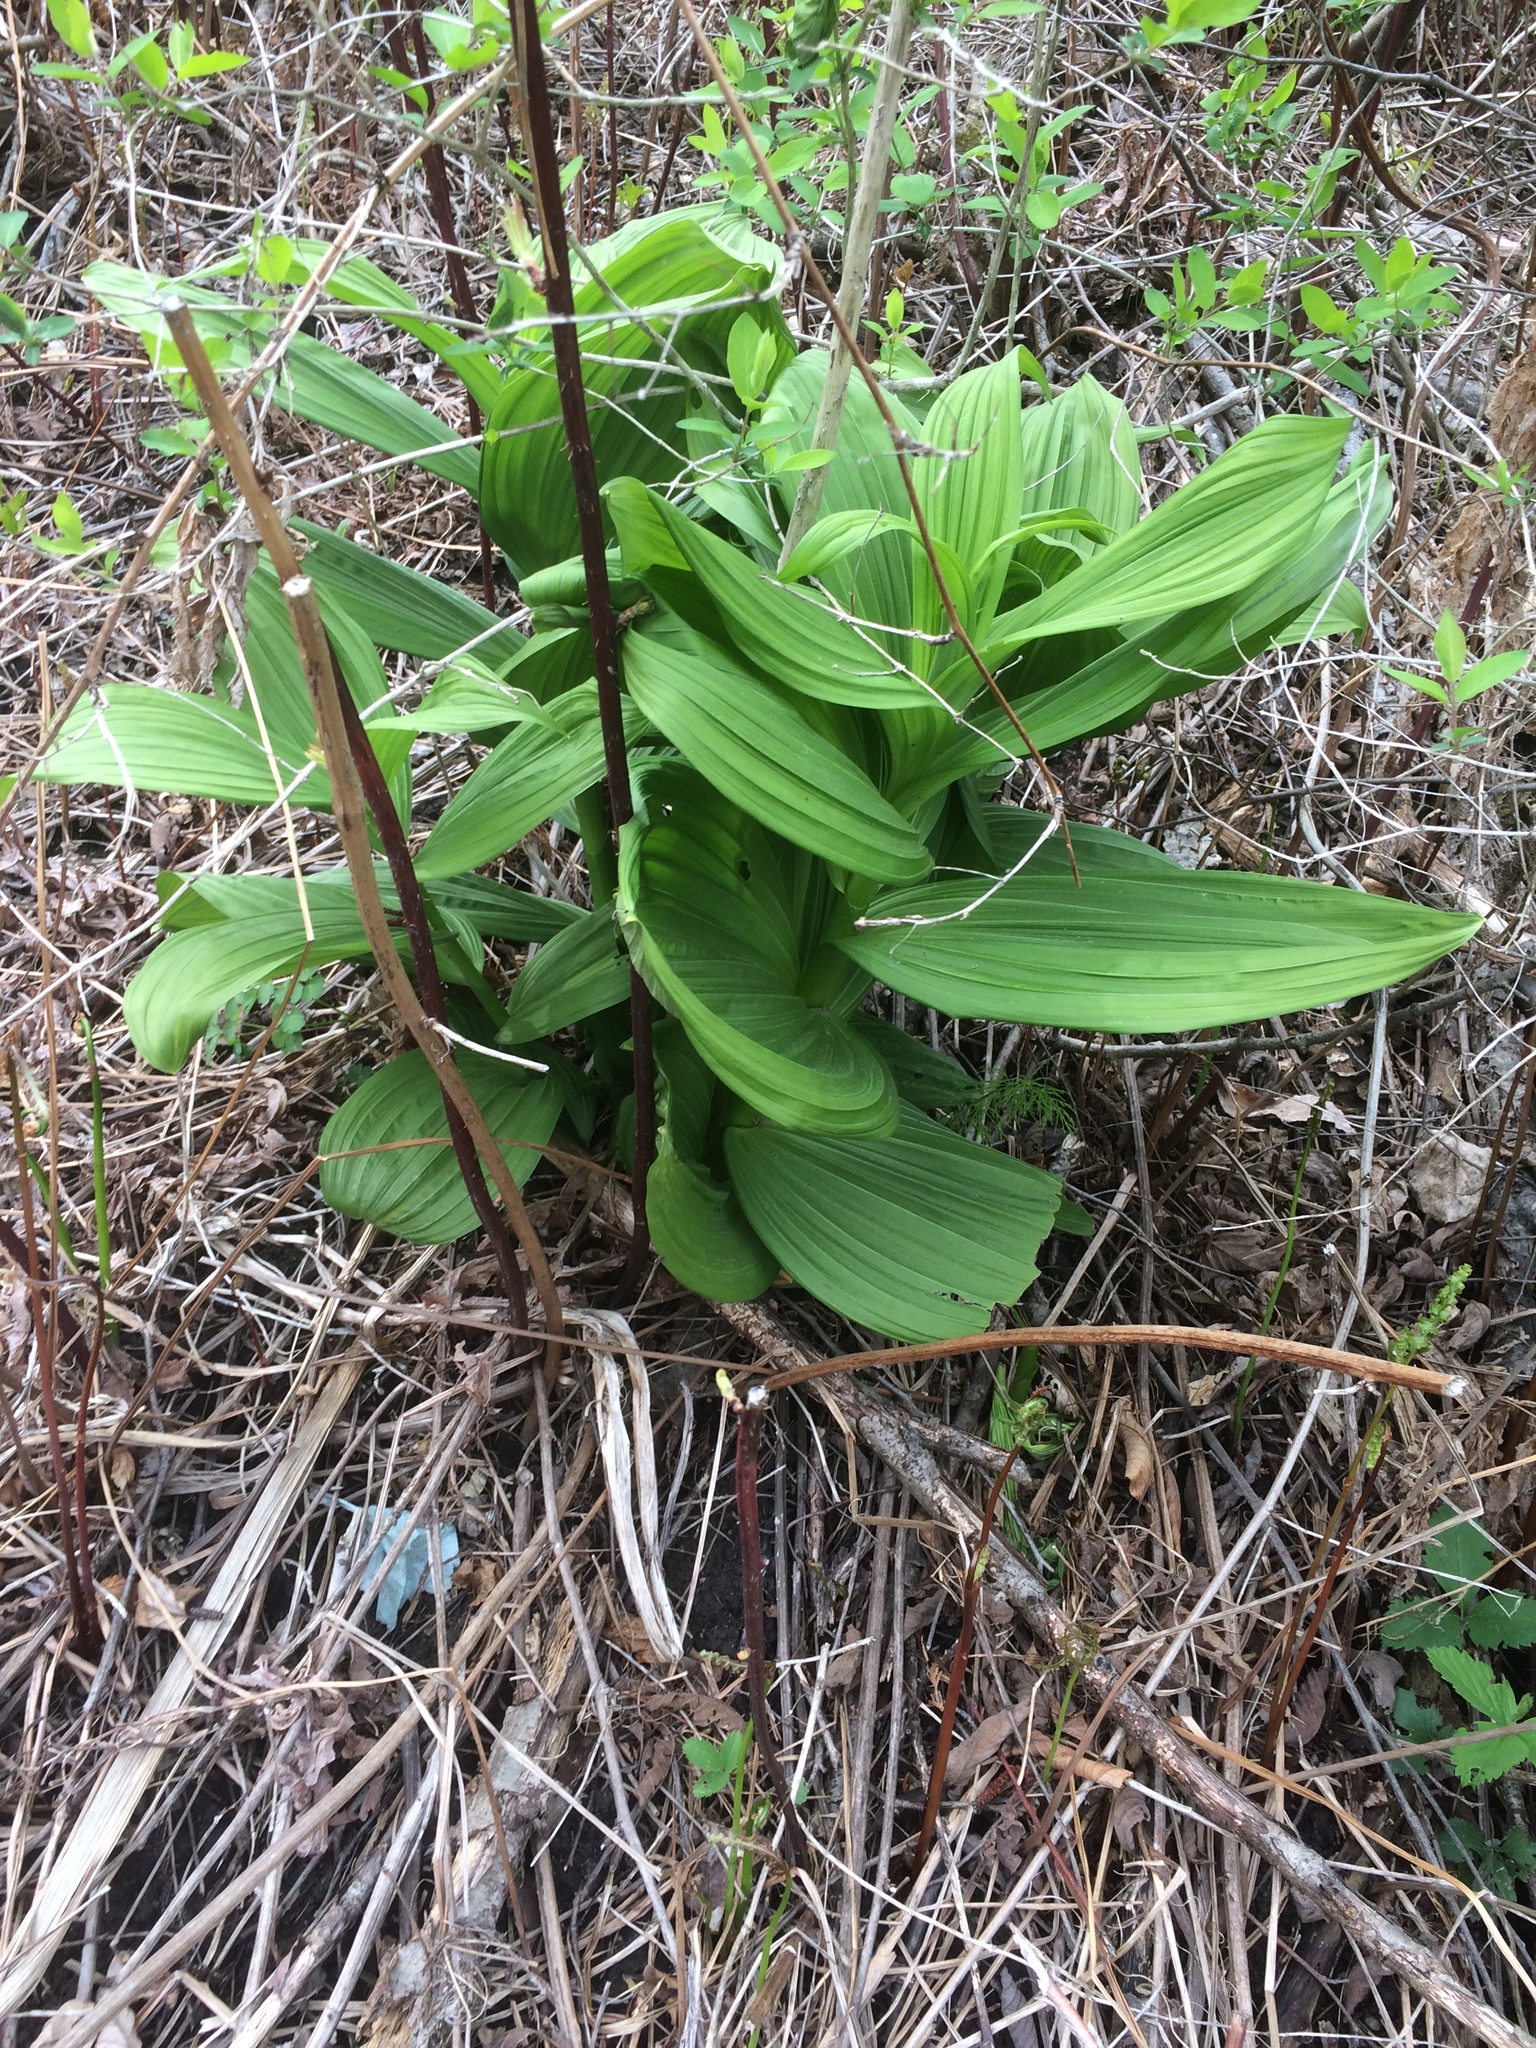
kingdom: Plantae
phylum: Tracheophyta
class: Liliopsida
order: Liliales
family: Melanthiaceae
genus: Veratrum
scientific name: Veratrum viride
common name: American false hellebore
